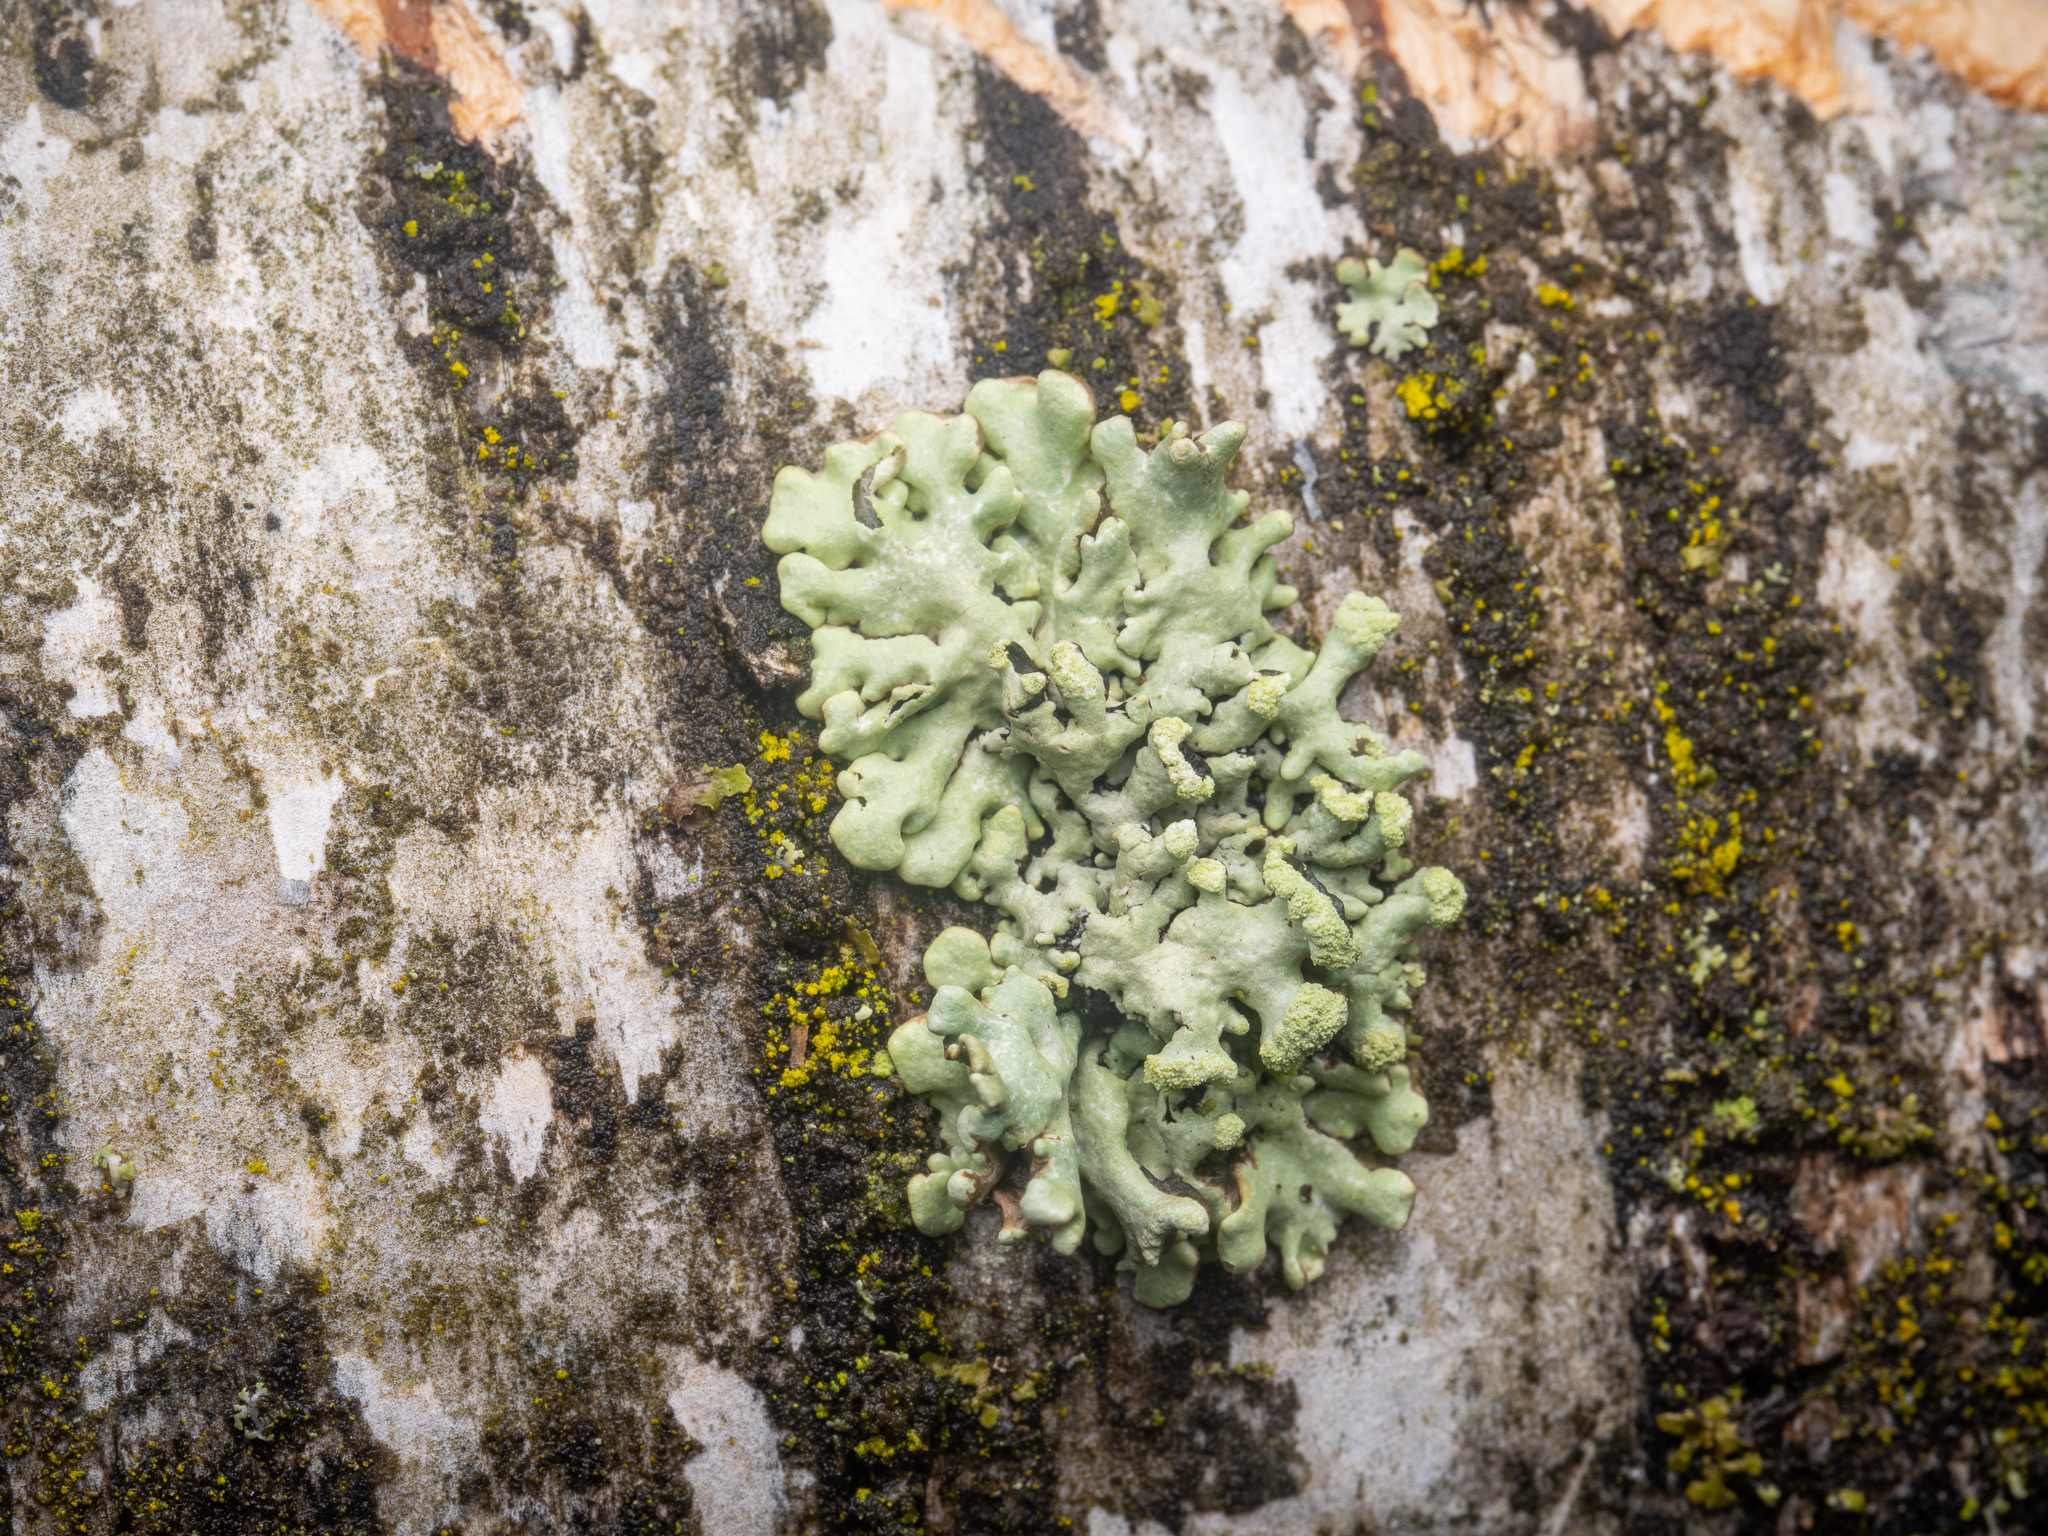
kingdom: Fungi
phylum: Ascomycota
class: Lecanoromycetes
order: Lecanorales
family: Parmeliaceae
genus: Hypogymnia
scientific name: Hypogymnia tubulosa
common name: Powder-headed tube lichen
